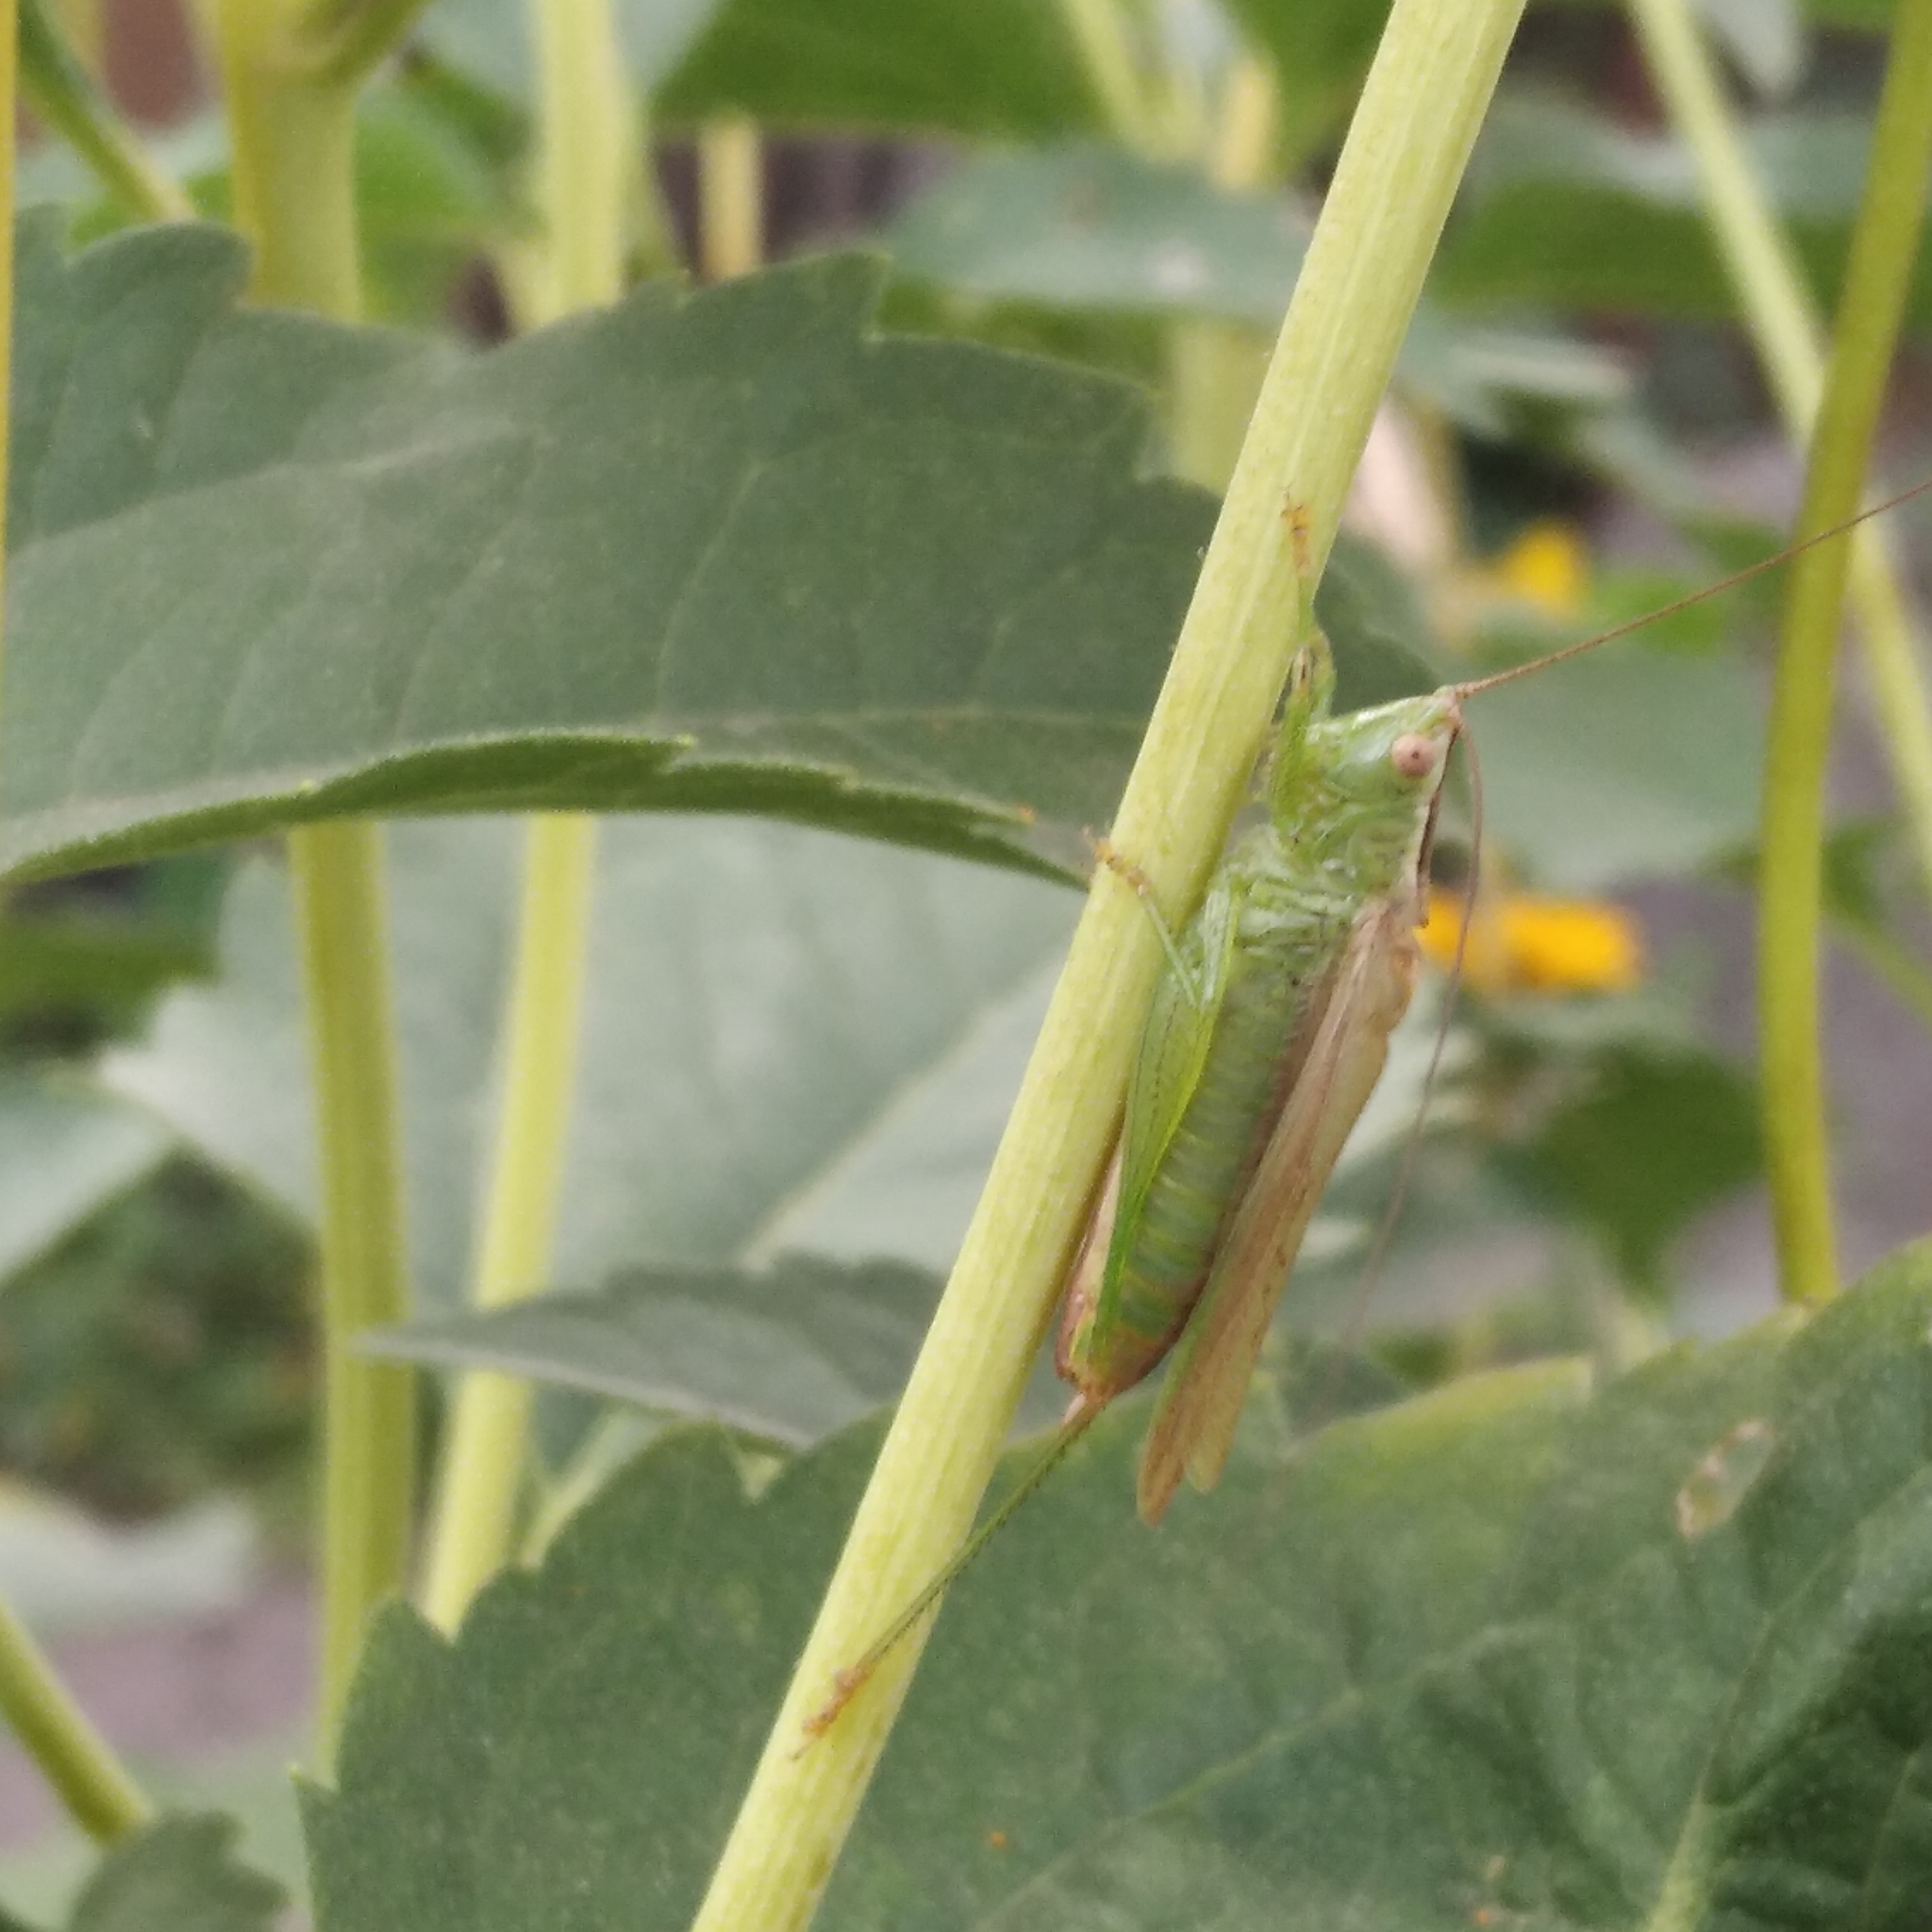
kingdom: Animalia
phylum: Arthropoda
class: Insecta
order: Orthoptera
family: Tettigoniidae
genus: Conocephalus
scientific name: Conocephalus fuscus
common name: Long-winged conehead
